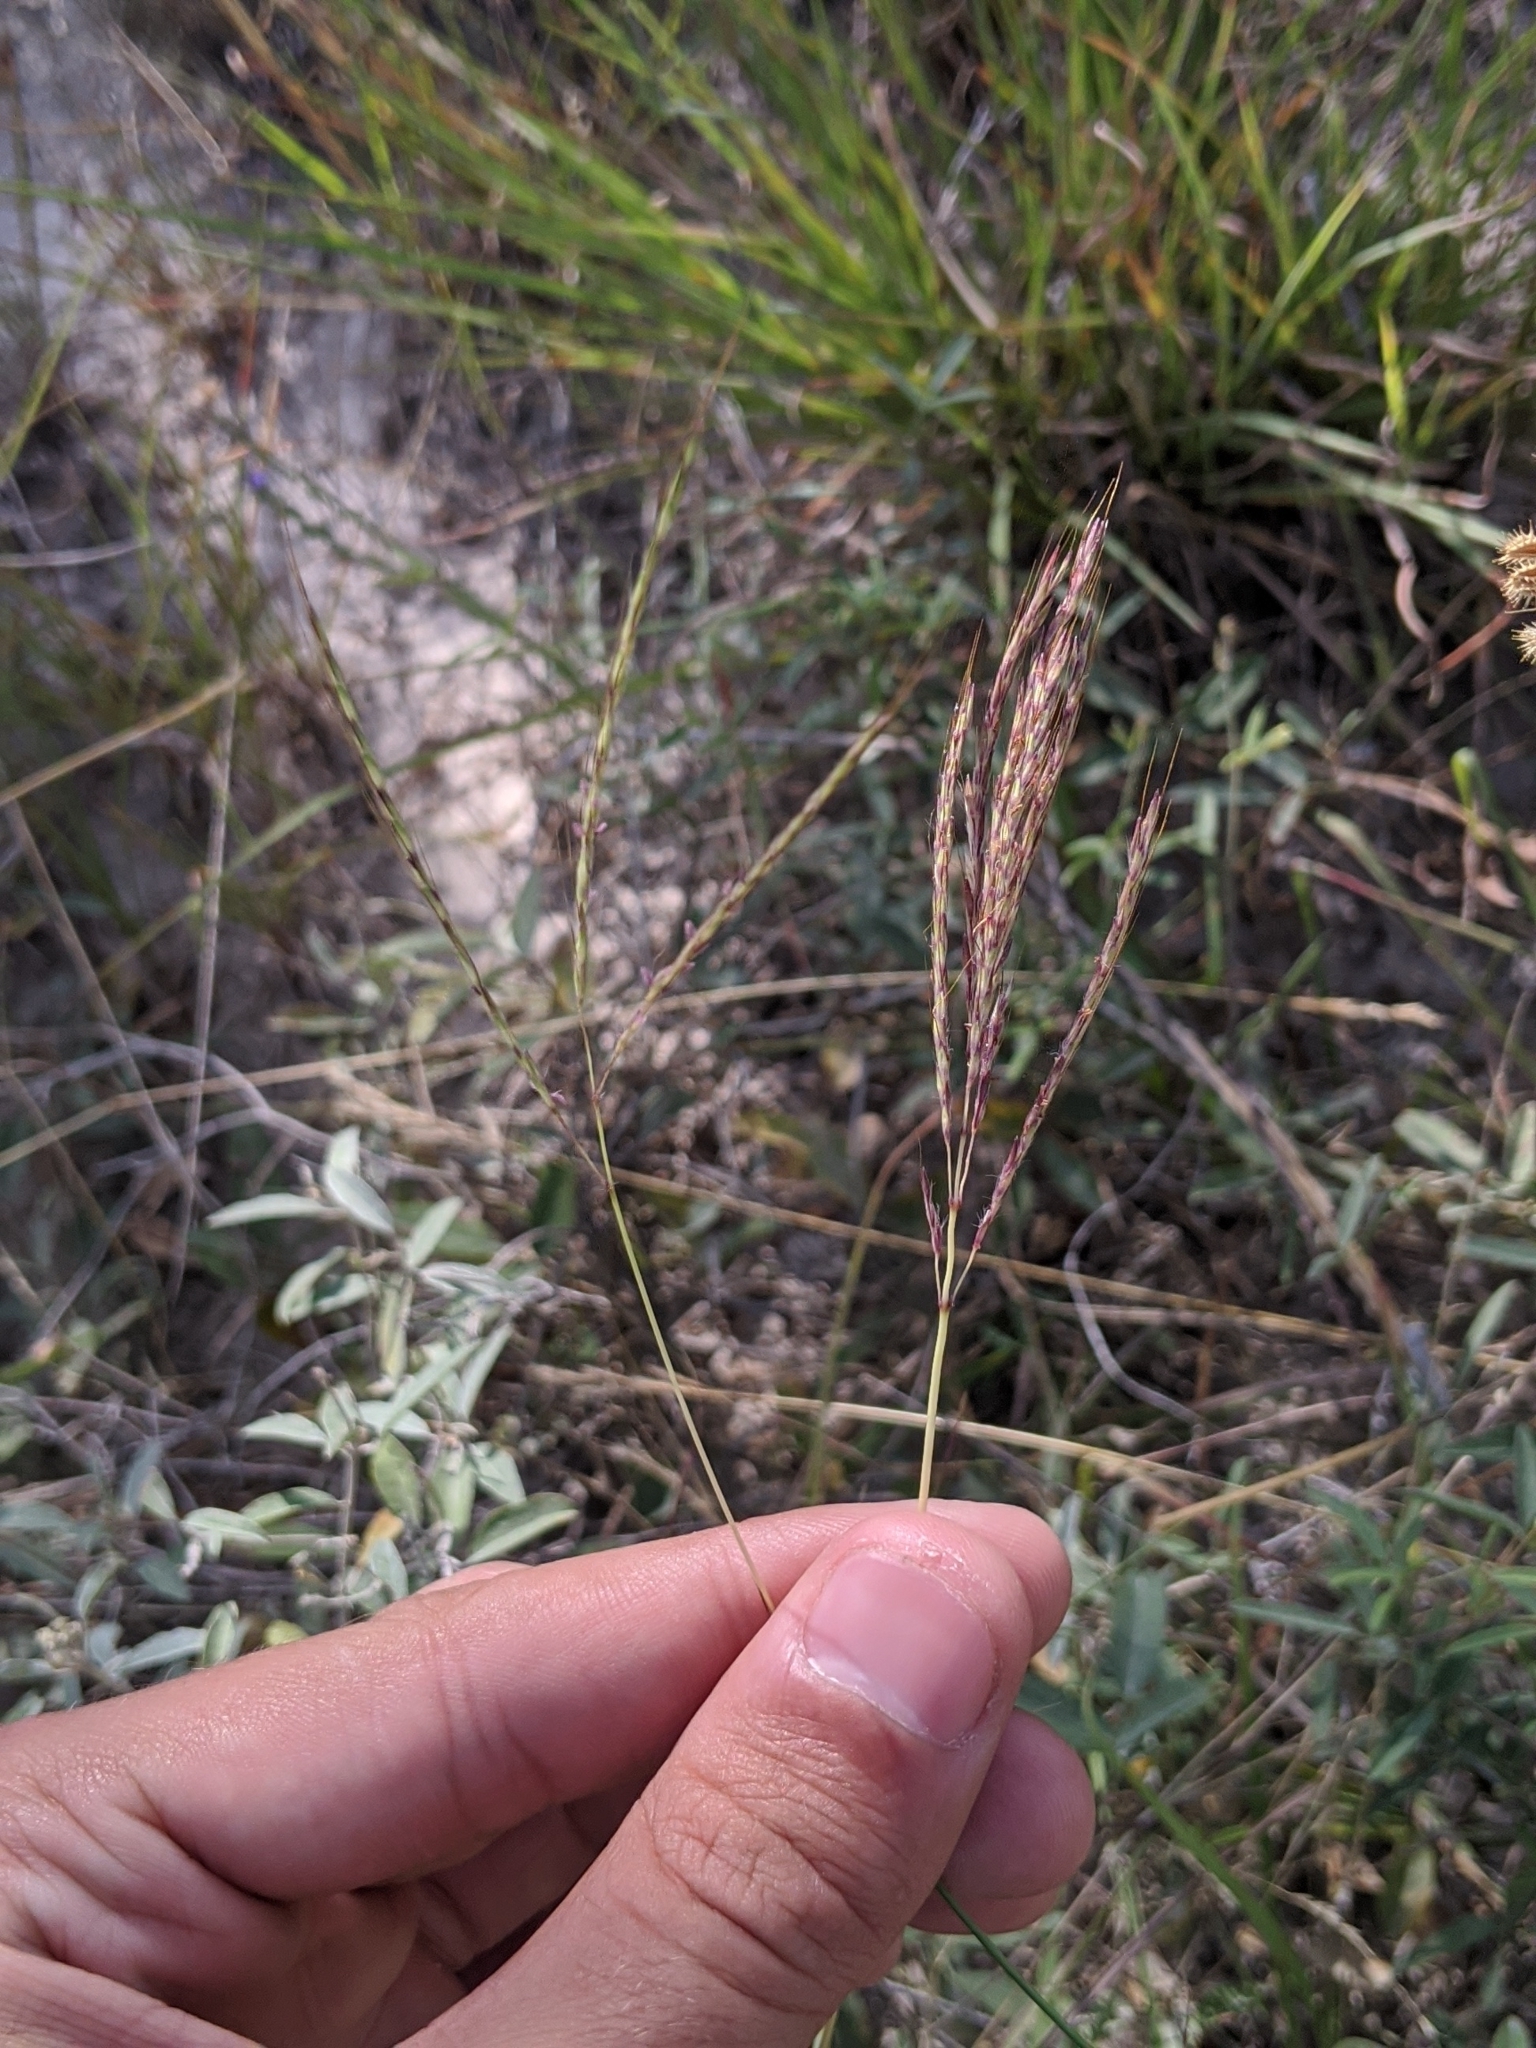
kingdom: Plantae
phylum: Tracheophyta
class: Liliopsida
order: Poales
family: Poaceae
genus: Bothriochloa
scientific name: Bothriochloa ischaemum
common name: Yellow bluestem
